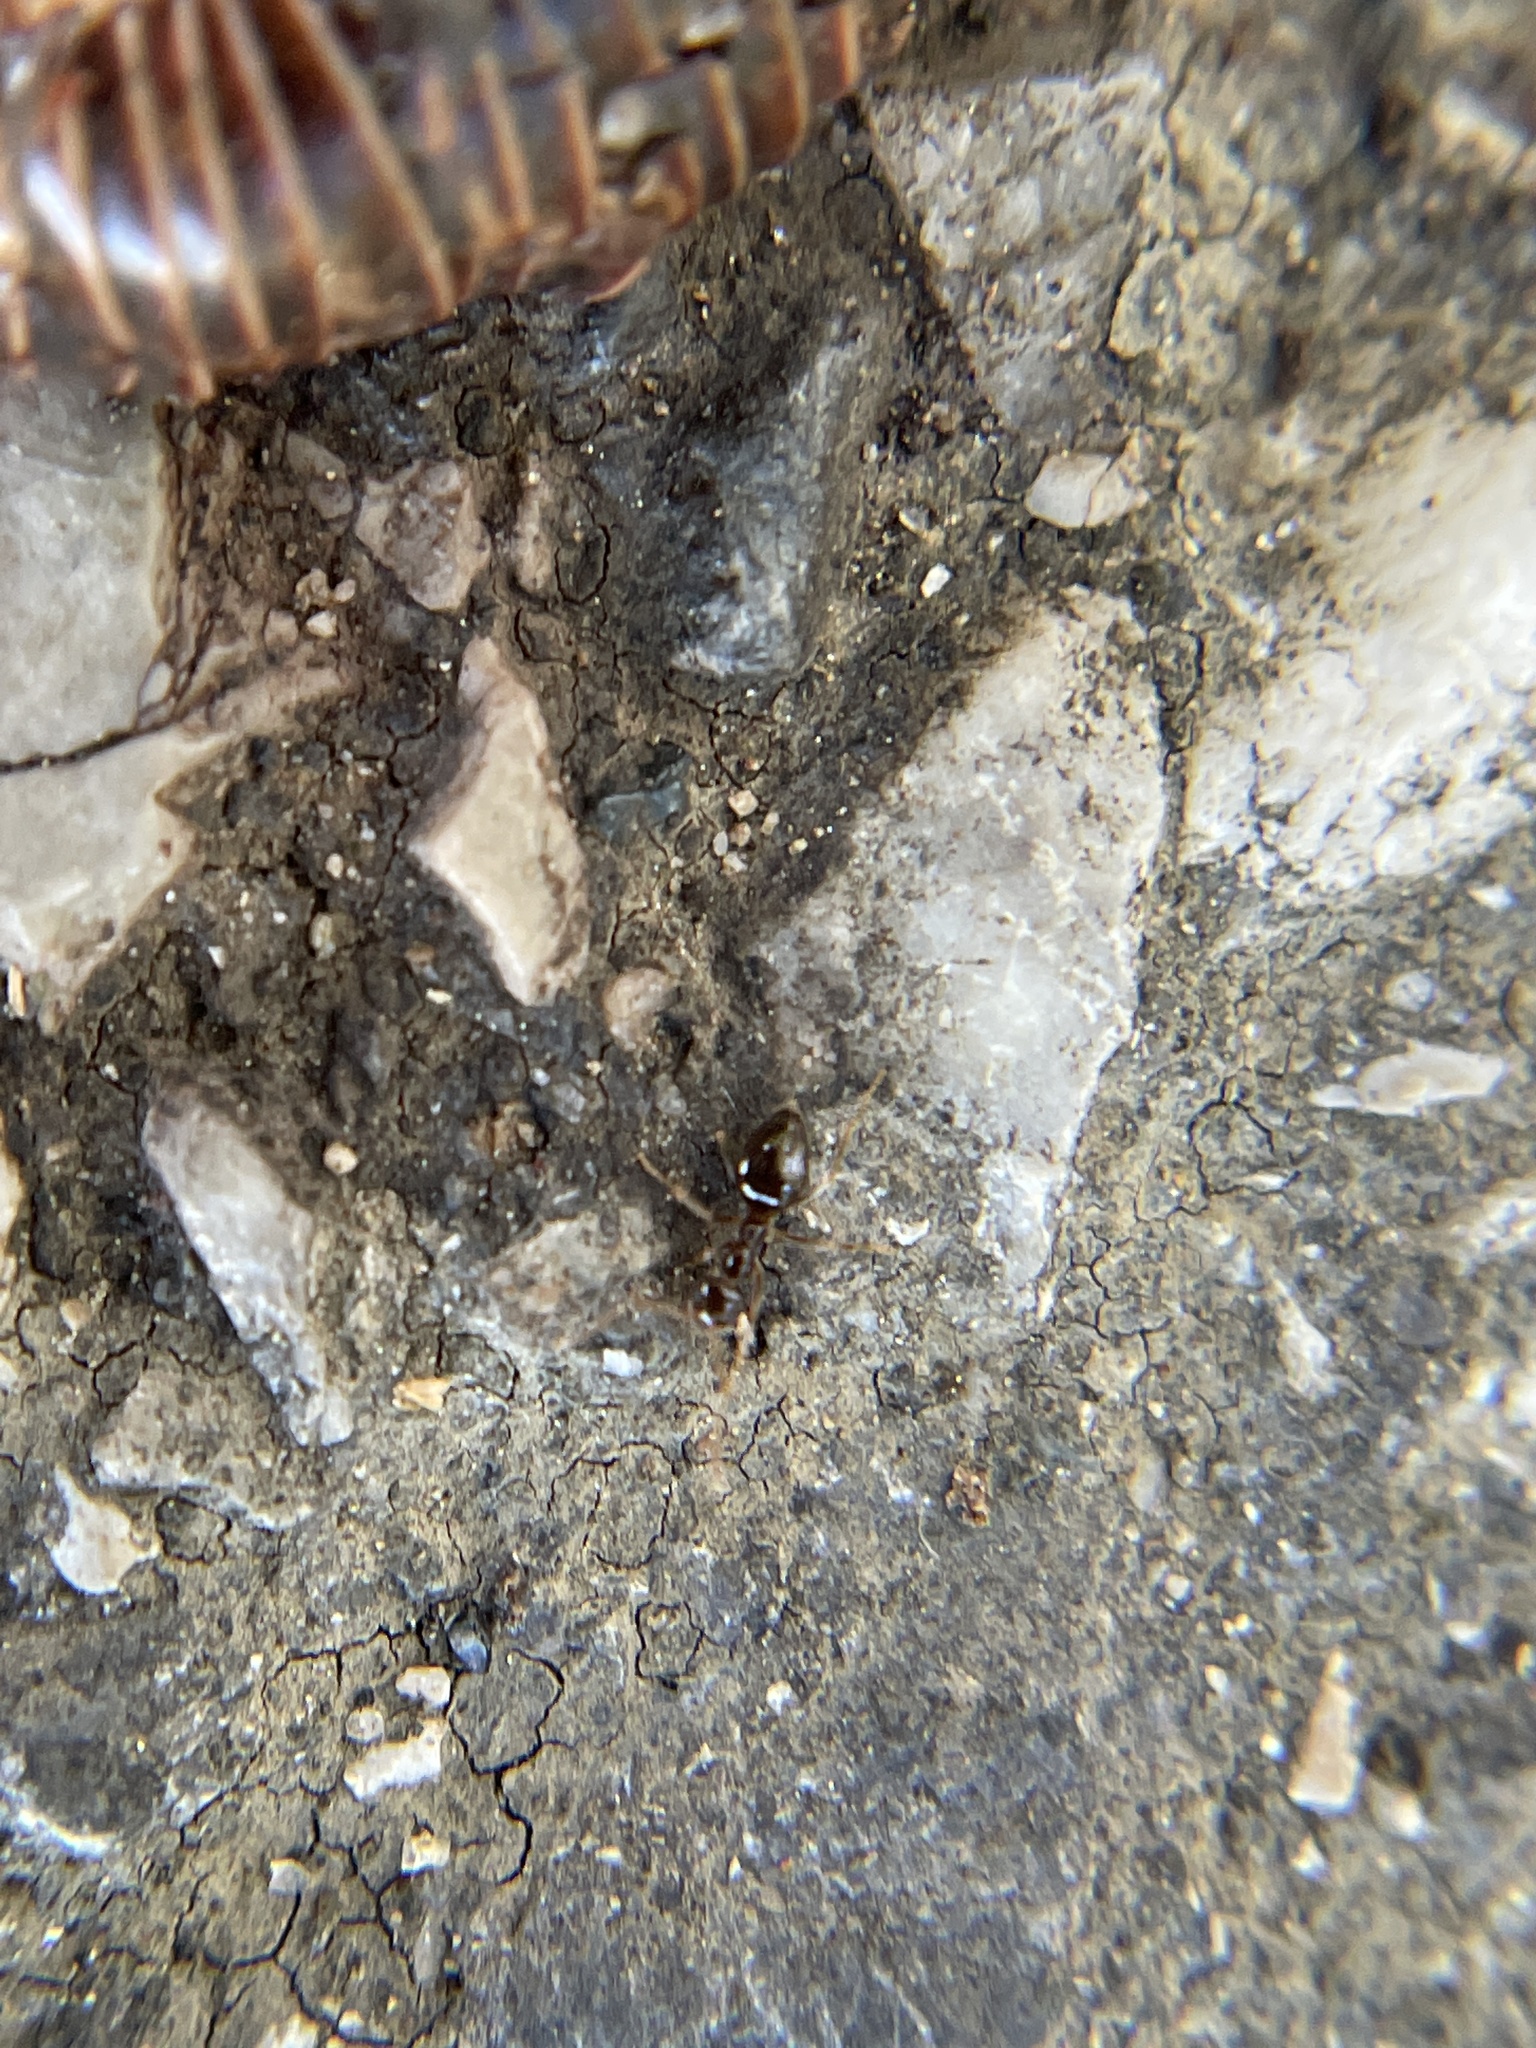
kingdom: Animalia
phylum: Arthropoda
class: Insecta
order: Hymenoptera
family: Formicidae
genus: Prenolepis
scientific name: Prenolepis imparis
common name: Small honey ant
